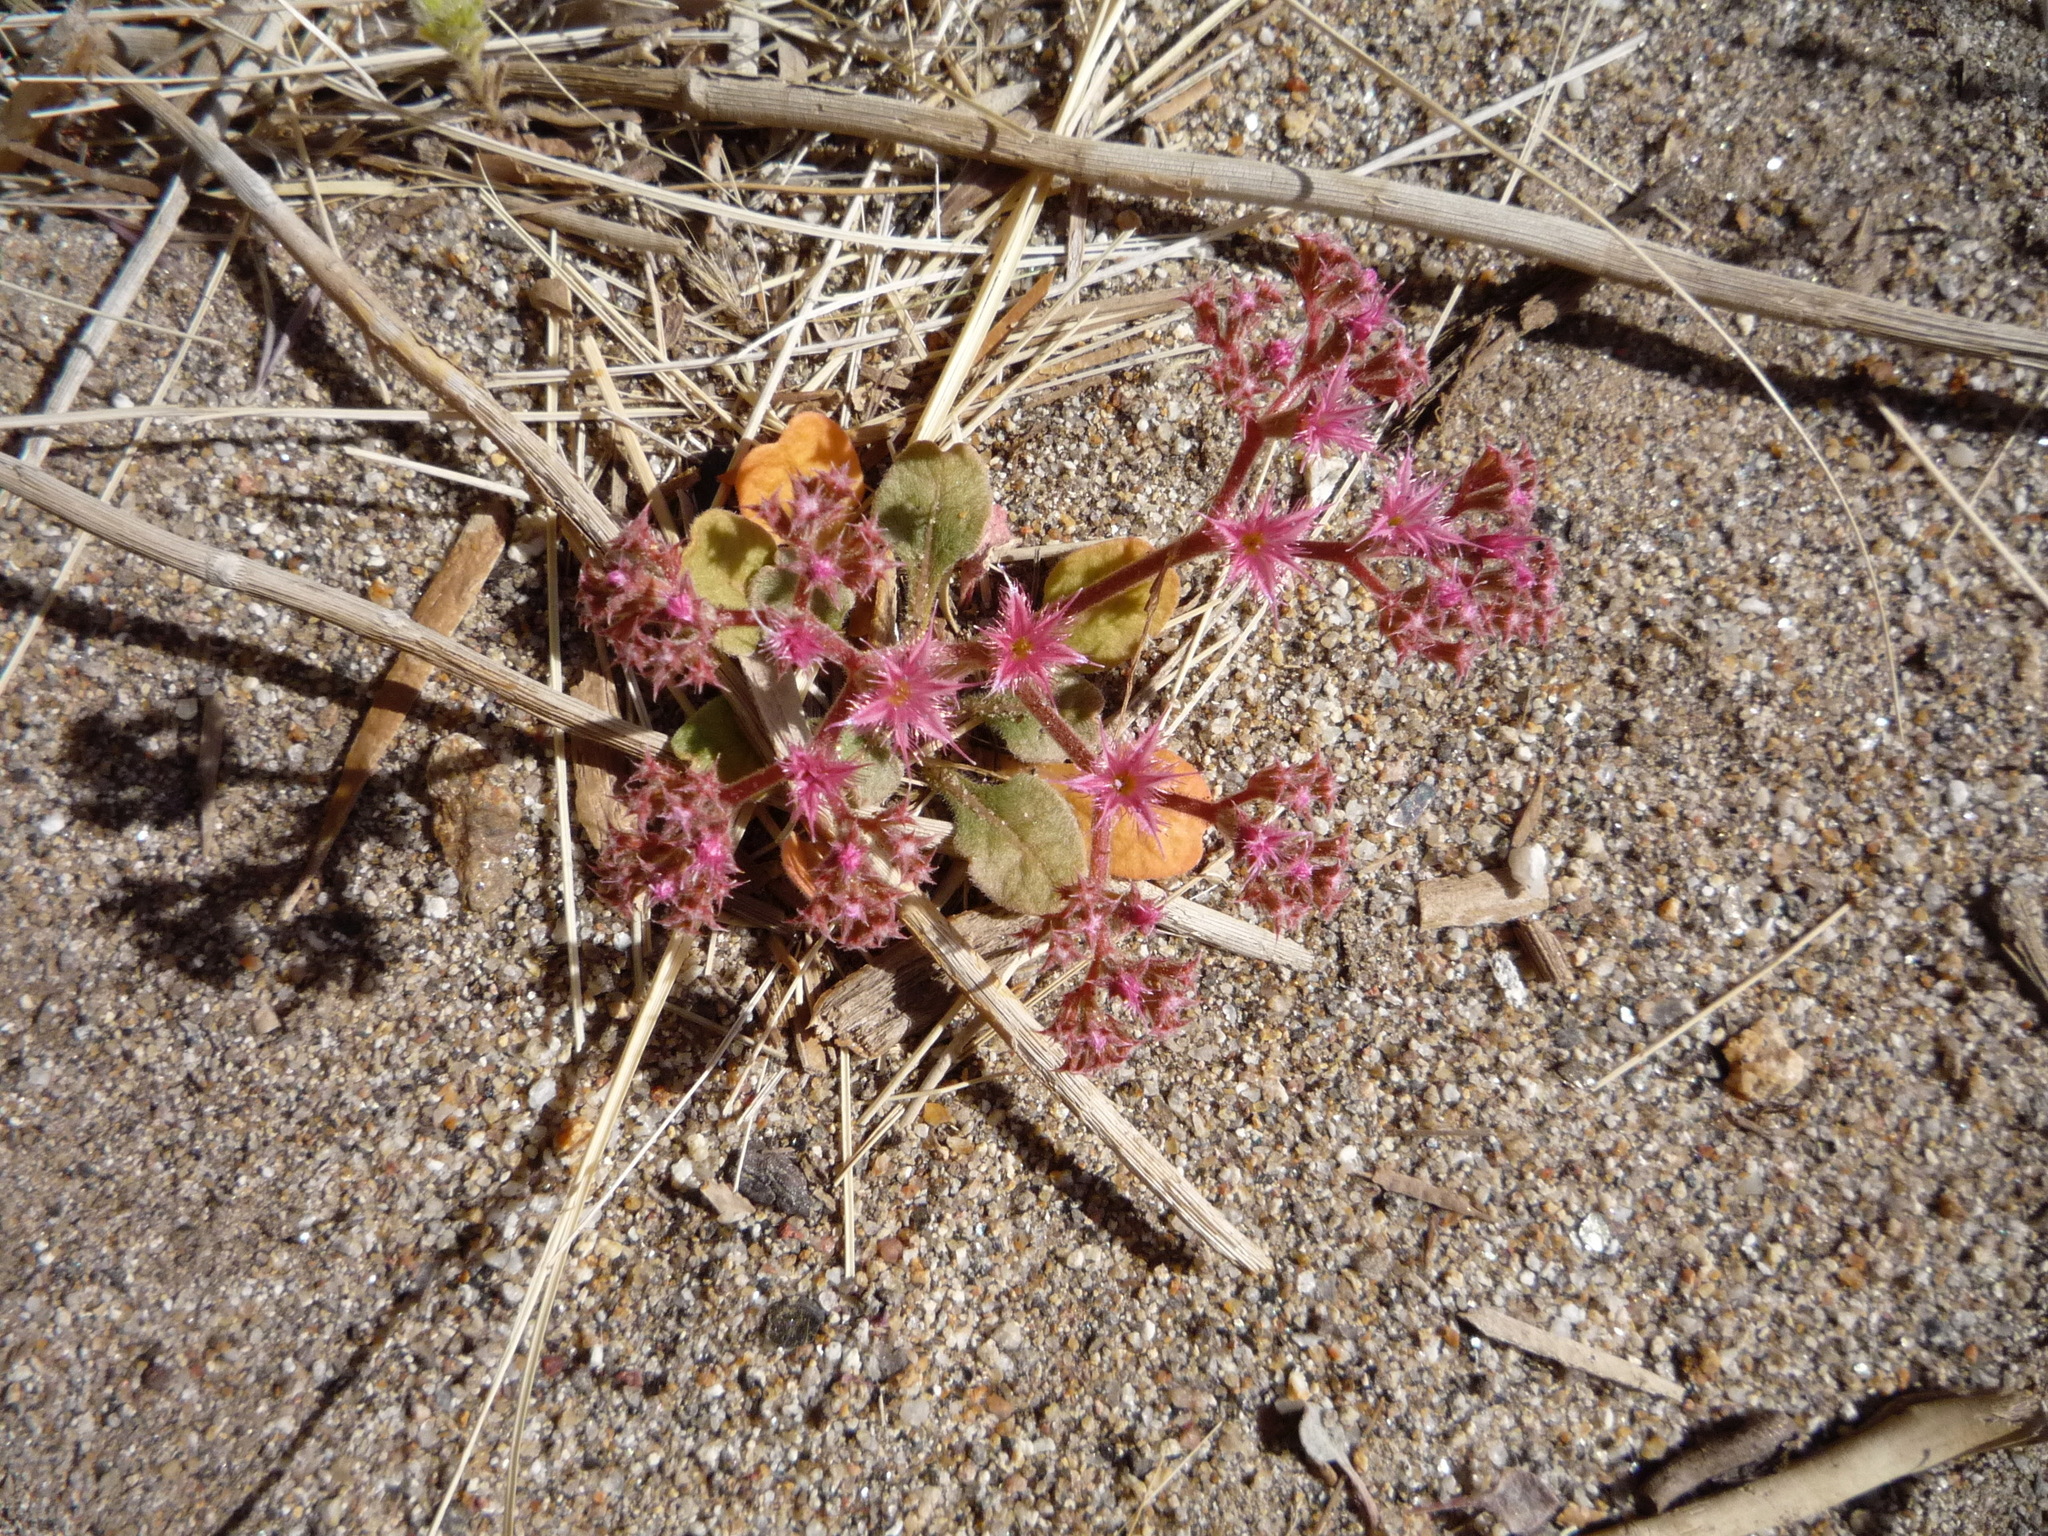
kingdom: Plantae
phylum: Tracheophyta
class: Magnoliopsida
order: Caryophyllales
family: Polygonaceae
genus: Chorizanthe
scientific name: Chorizanthe fimbriata
